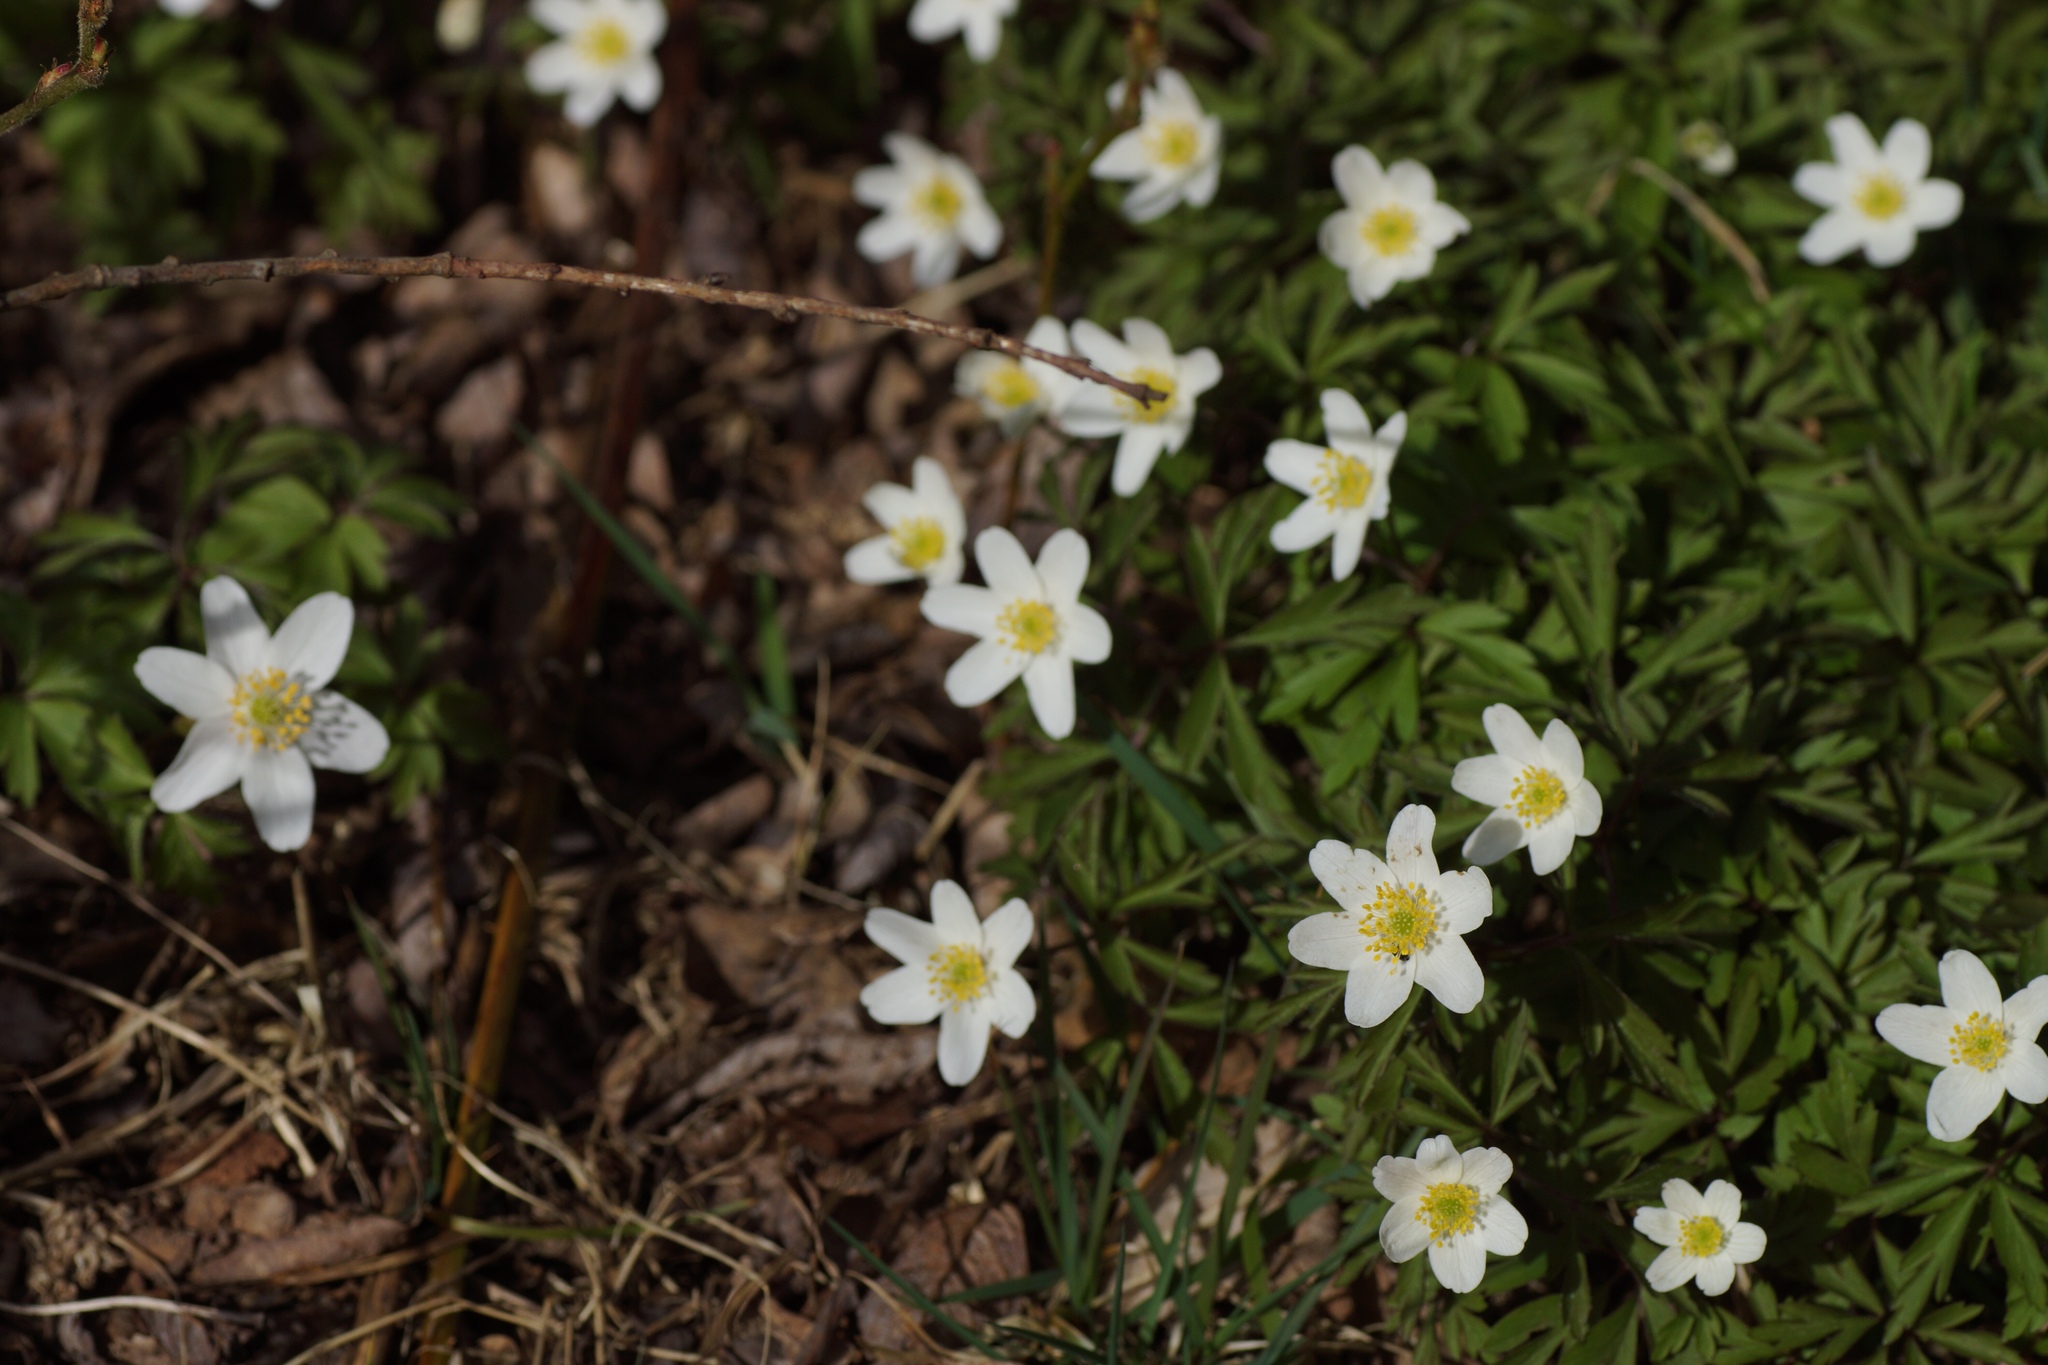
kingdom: Plantae
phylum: Tracheophyta
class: Magnoliopsida
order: Ranunculales
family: Ranunculaceae
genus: Anemone
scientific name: Anemone nemorosa
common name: Wood anemone
